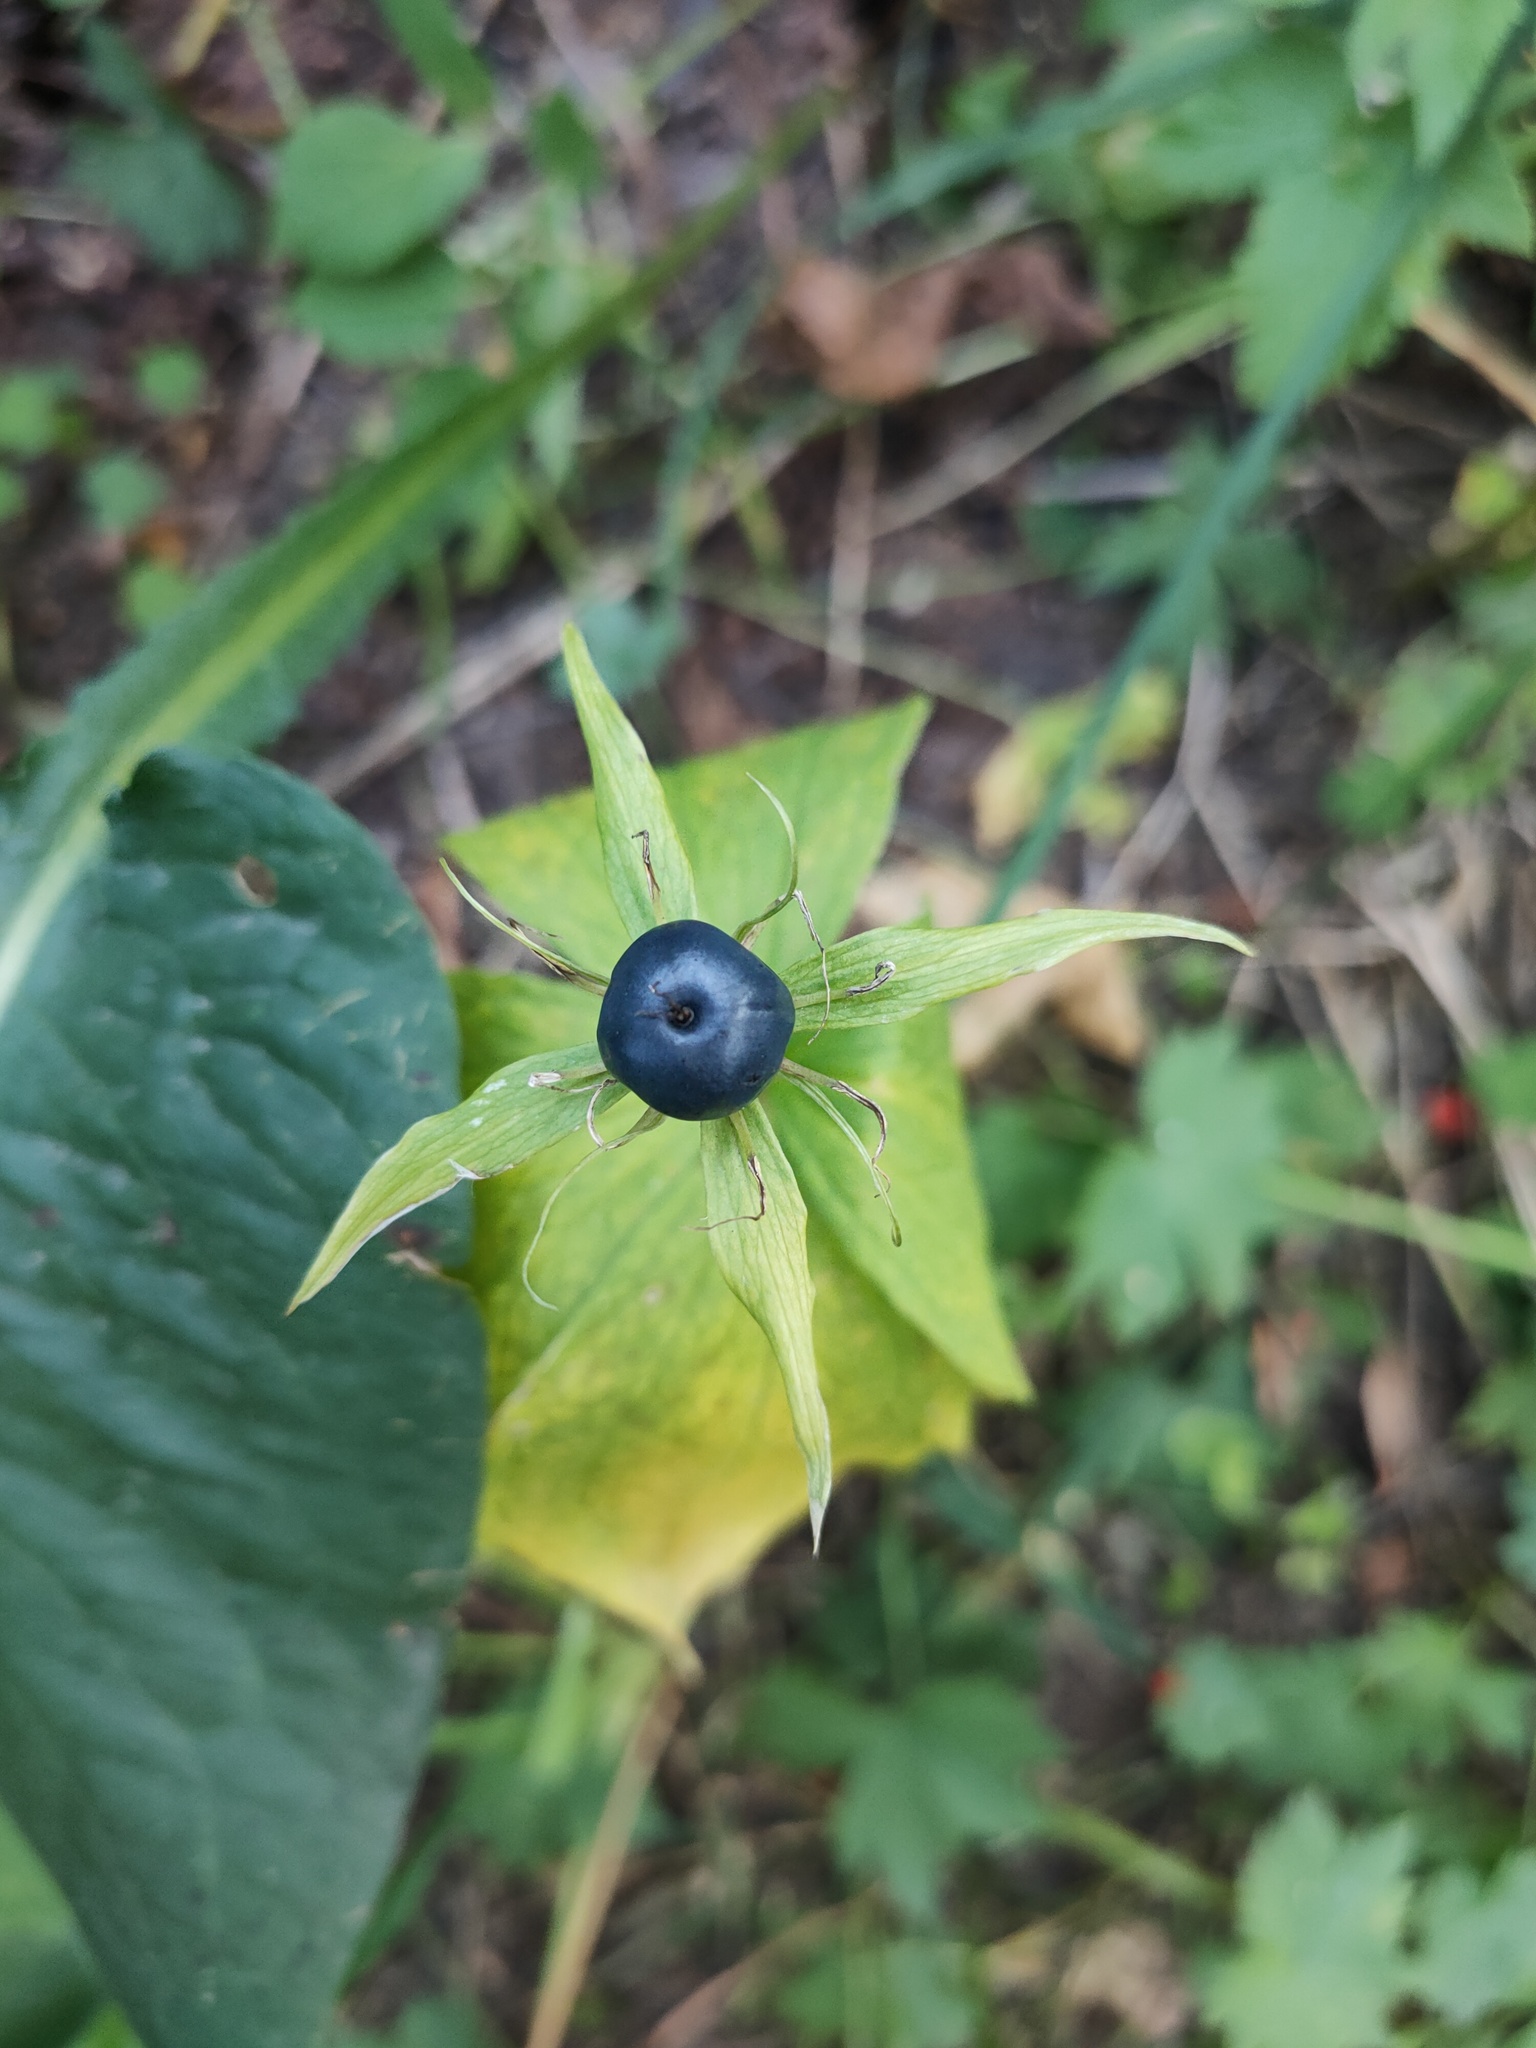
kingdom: Plantae
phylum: Tracheophyta
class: Liliopsida
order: Liliales
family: Melanthiaceae
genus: Paris
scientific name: Paris quadrifolia
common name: Herb-paris
